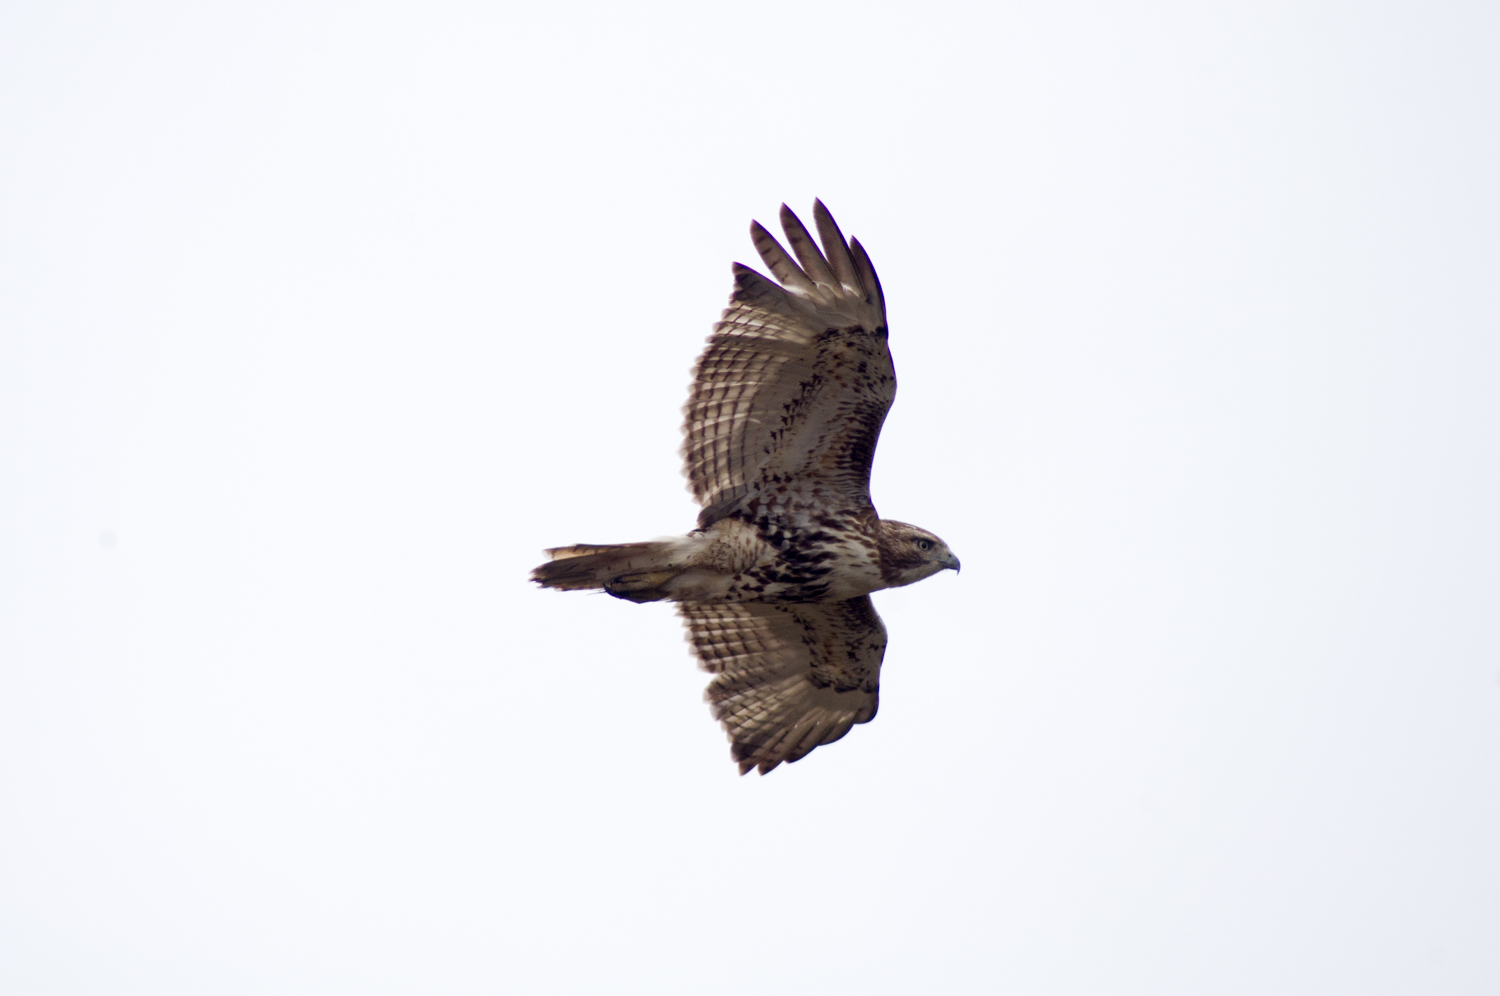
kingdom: Animalia
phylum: Chordata
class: Aves
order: Accipitriformes
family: Accipitridae
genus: Buteo
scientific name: Buteo jamaicensis
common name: Red-tailed hawk
